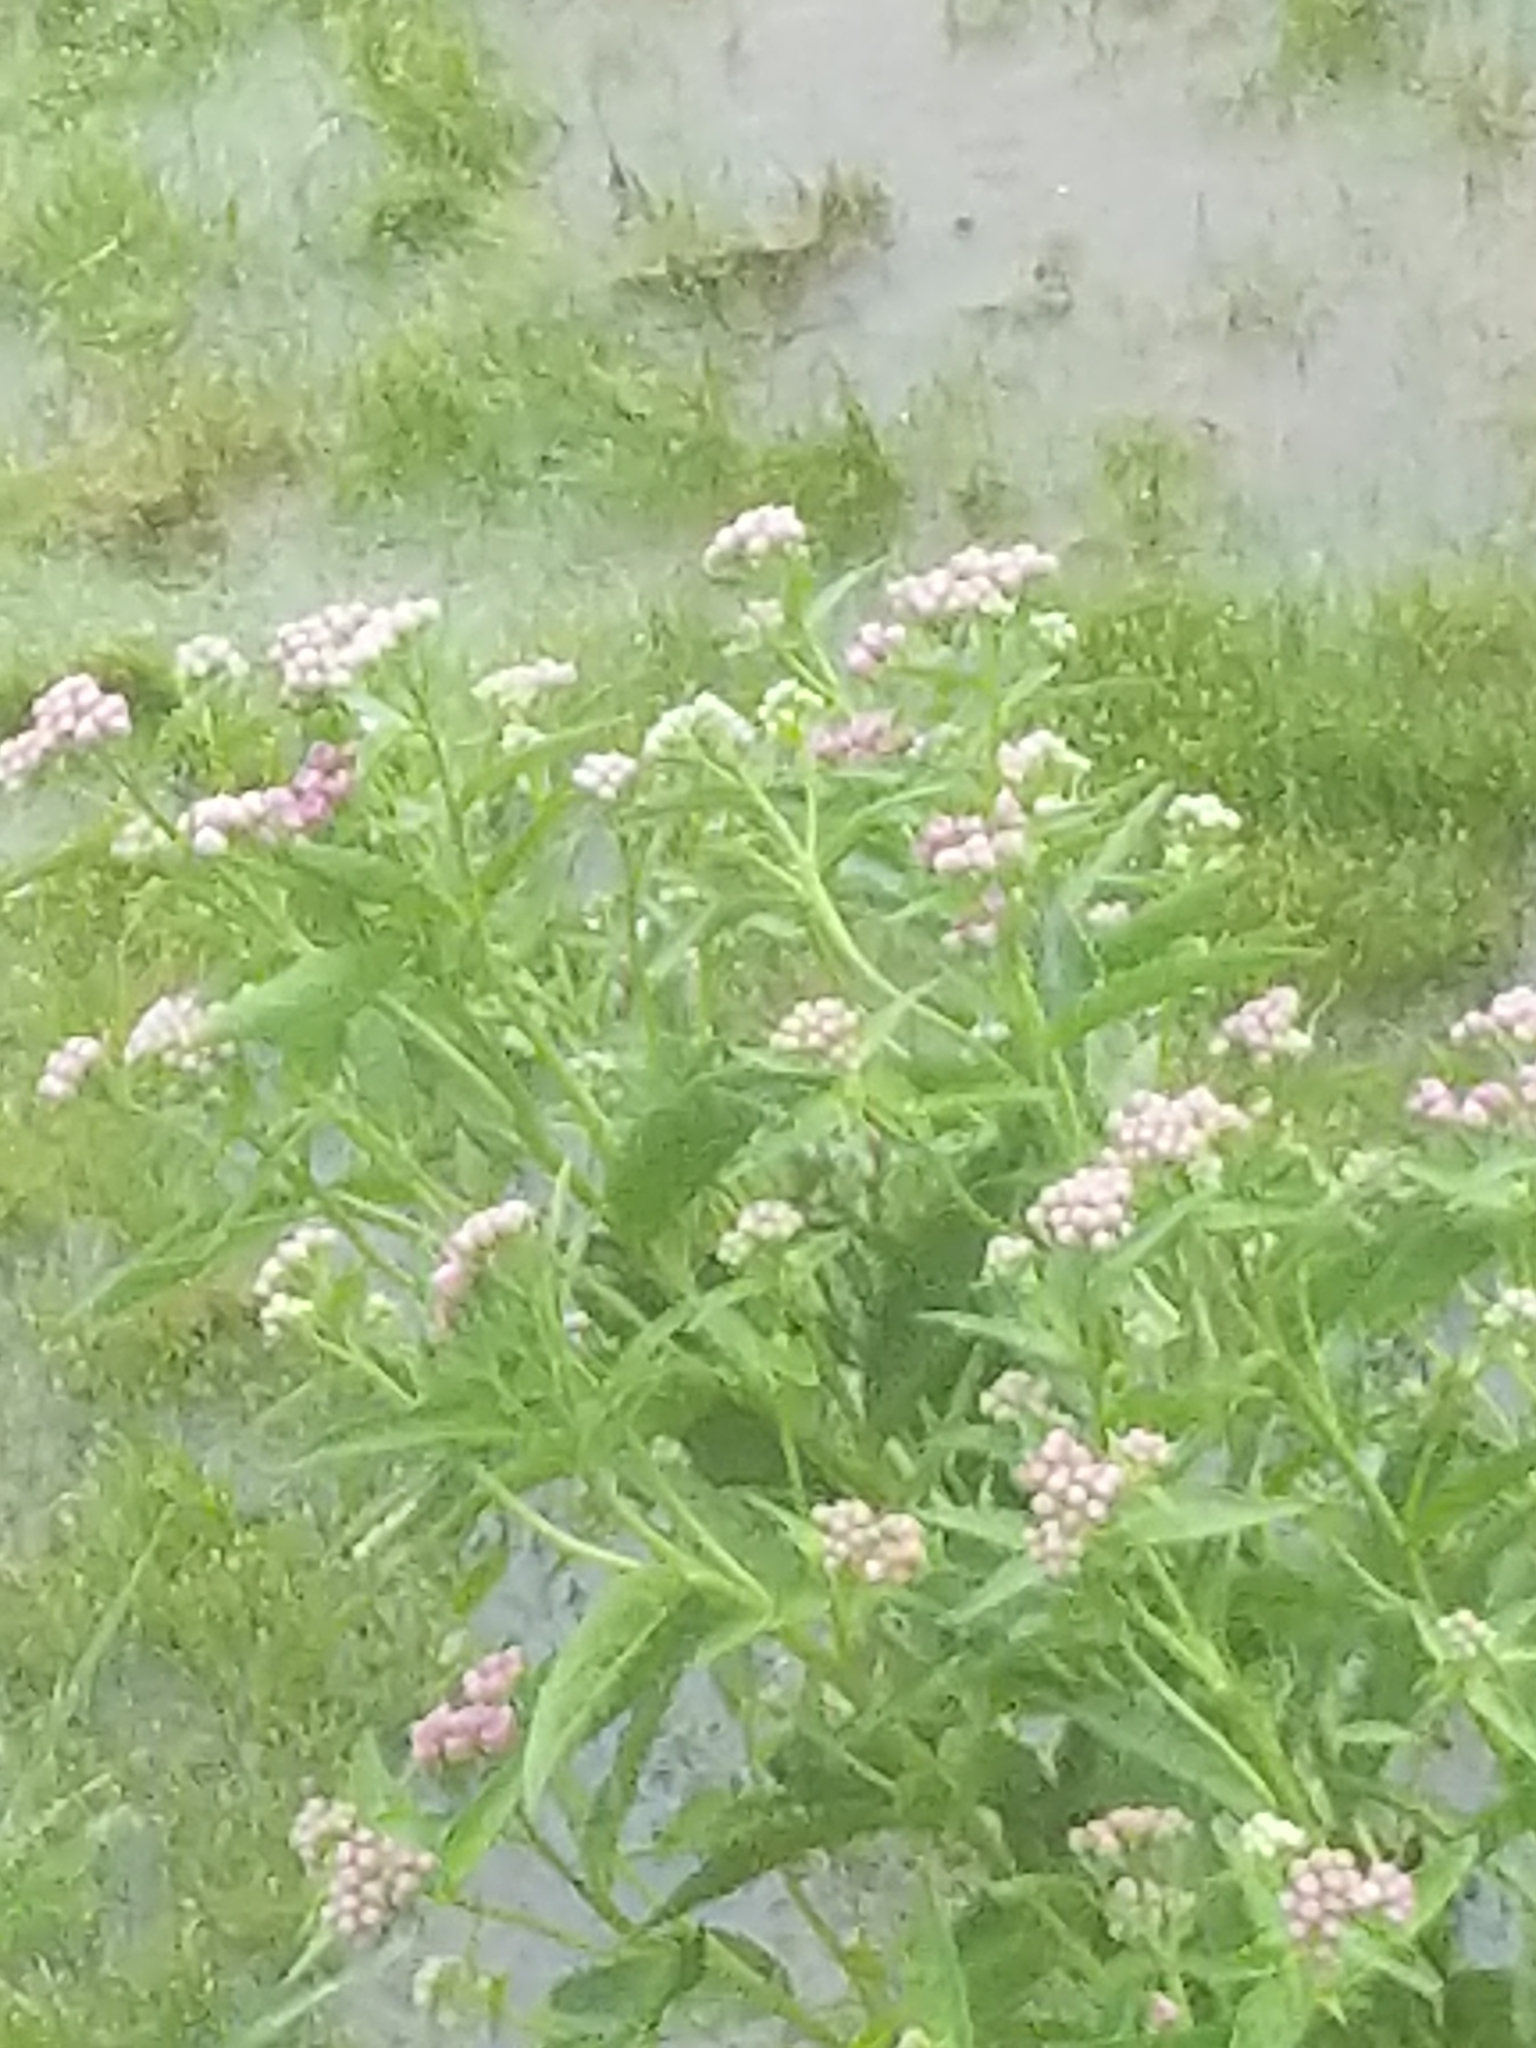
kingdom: Plantae
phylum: Tracheophyta
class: Magnoliopsida
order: Asterales
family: Asteraceae
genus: Pluchea
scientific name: Pluchea odorata
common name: Saltmarsh fleabane
